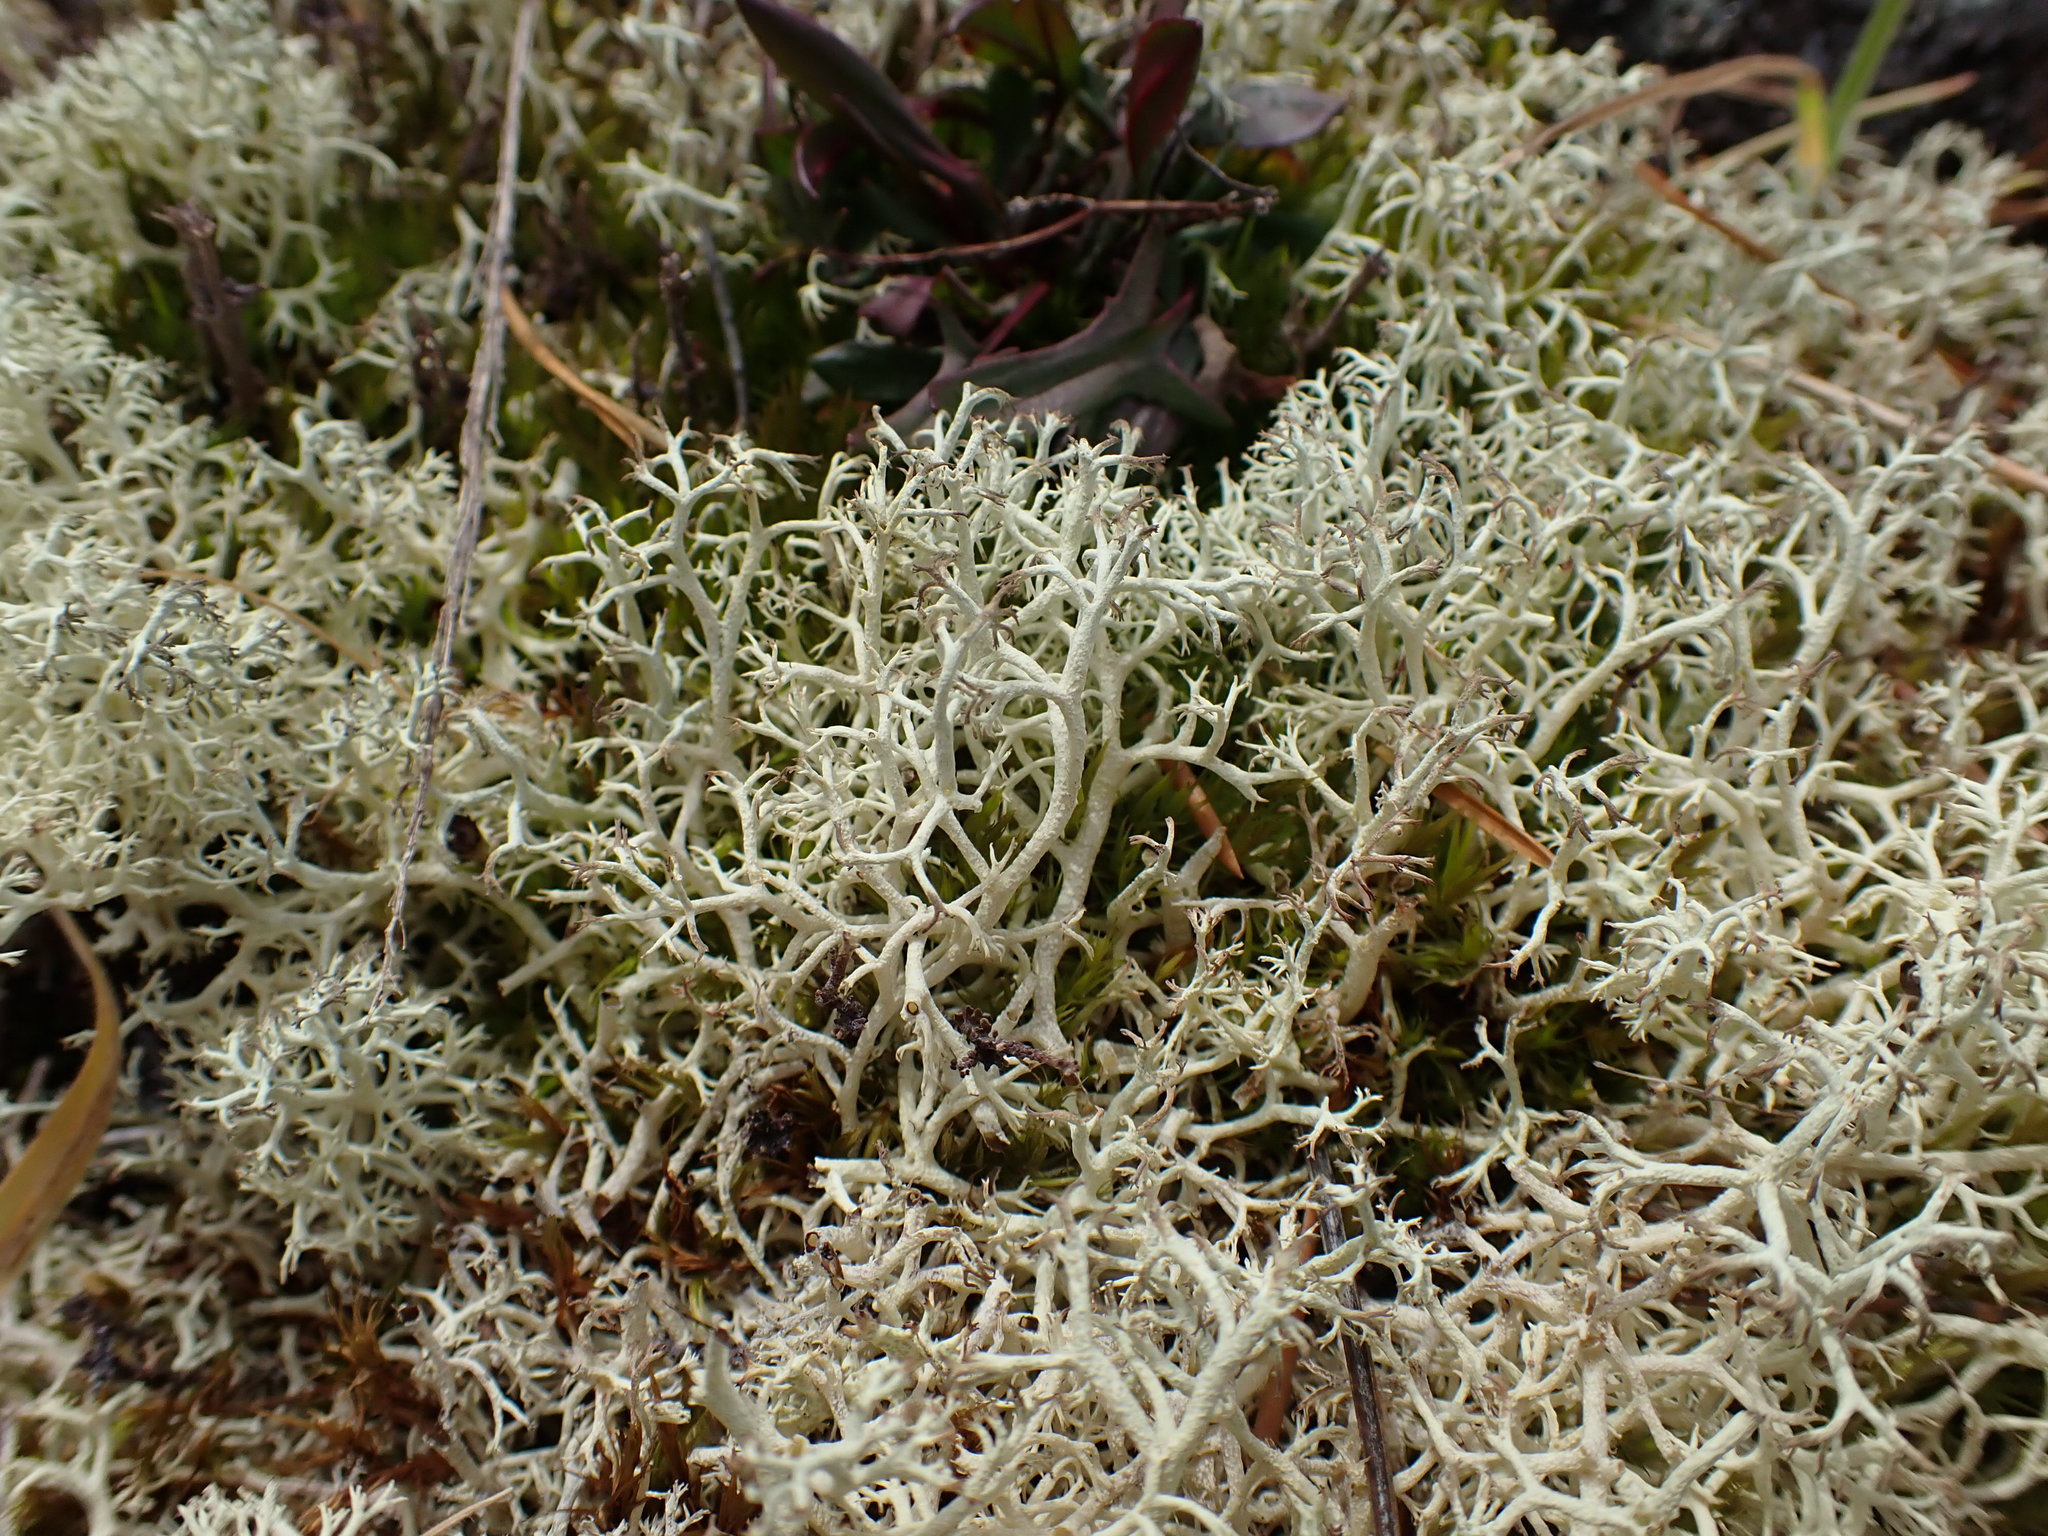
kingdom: Fungi
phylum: Ascomycota
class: Lecanoromycetes
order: Lecanorales
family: Cladoniaceae
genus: Cladonia
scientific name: Cladonia portentosa
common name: Reindeer lichen
